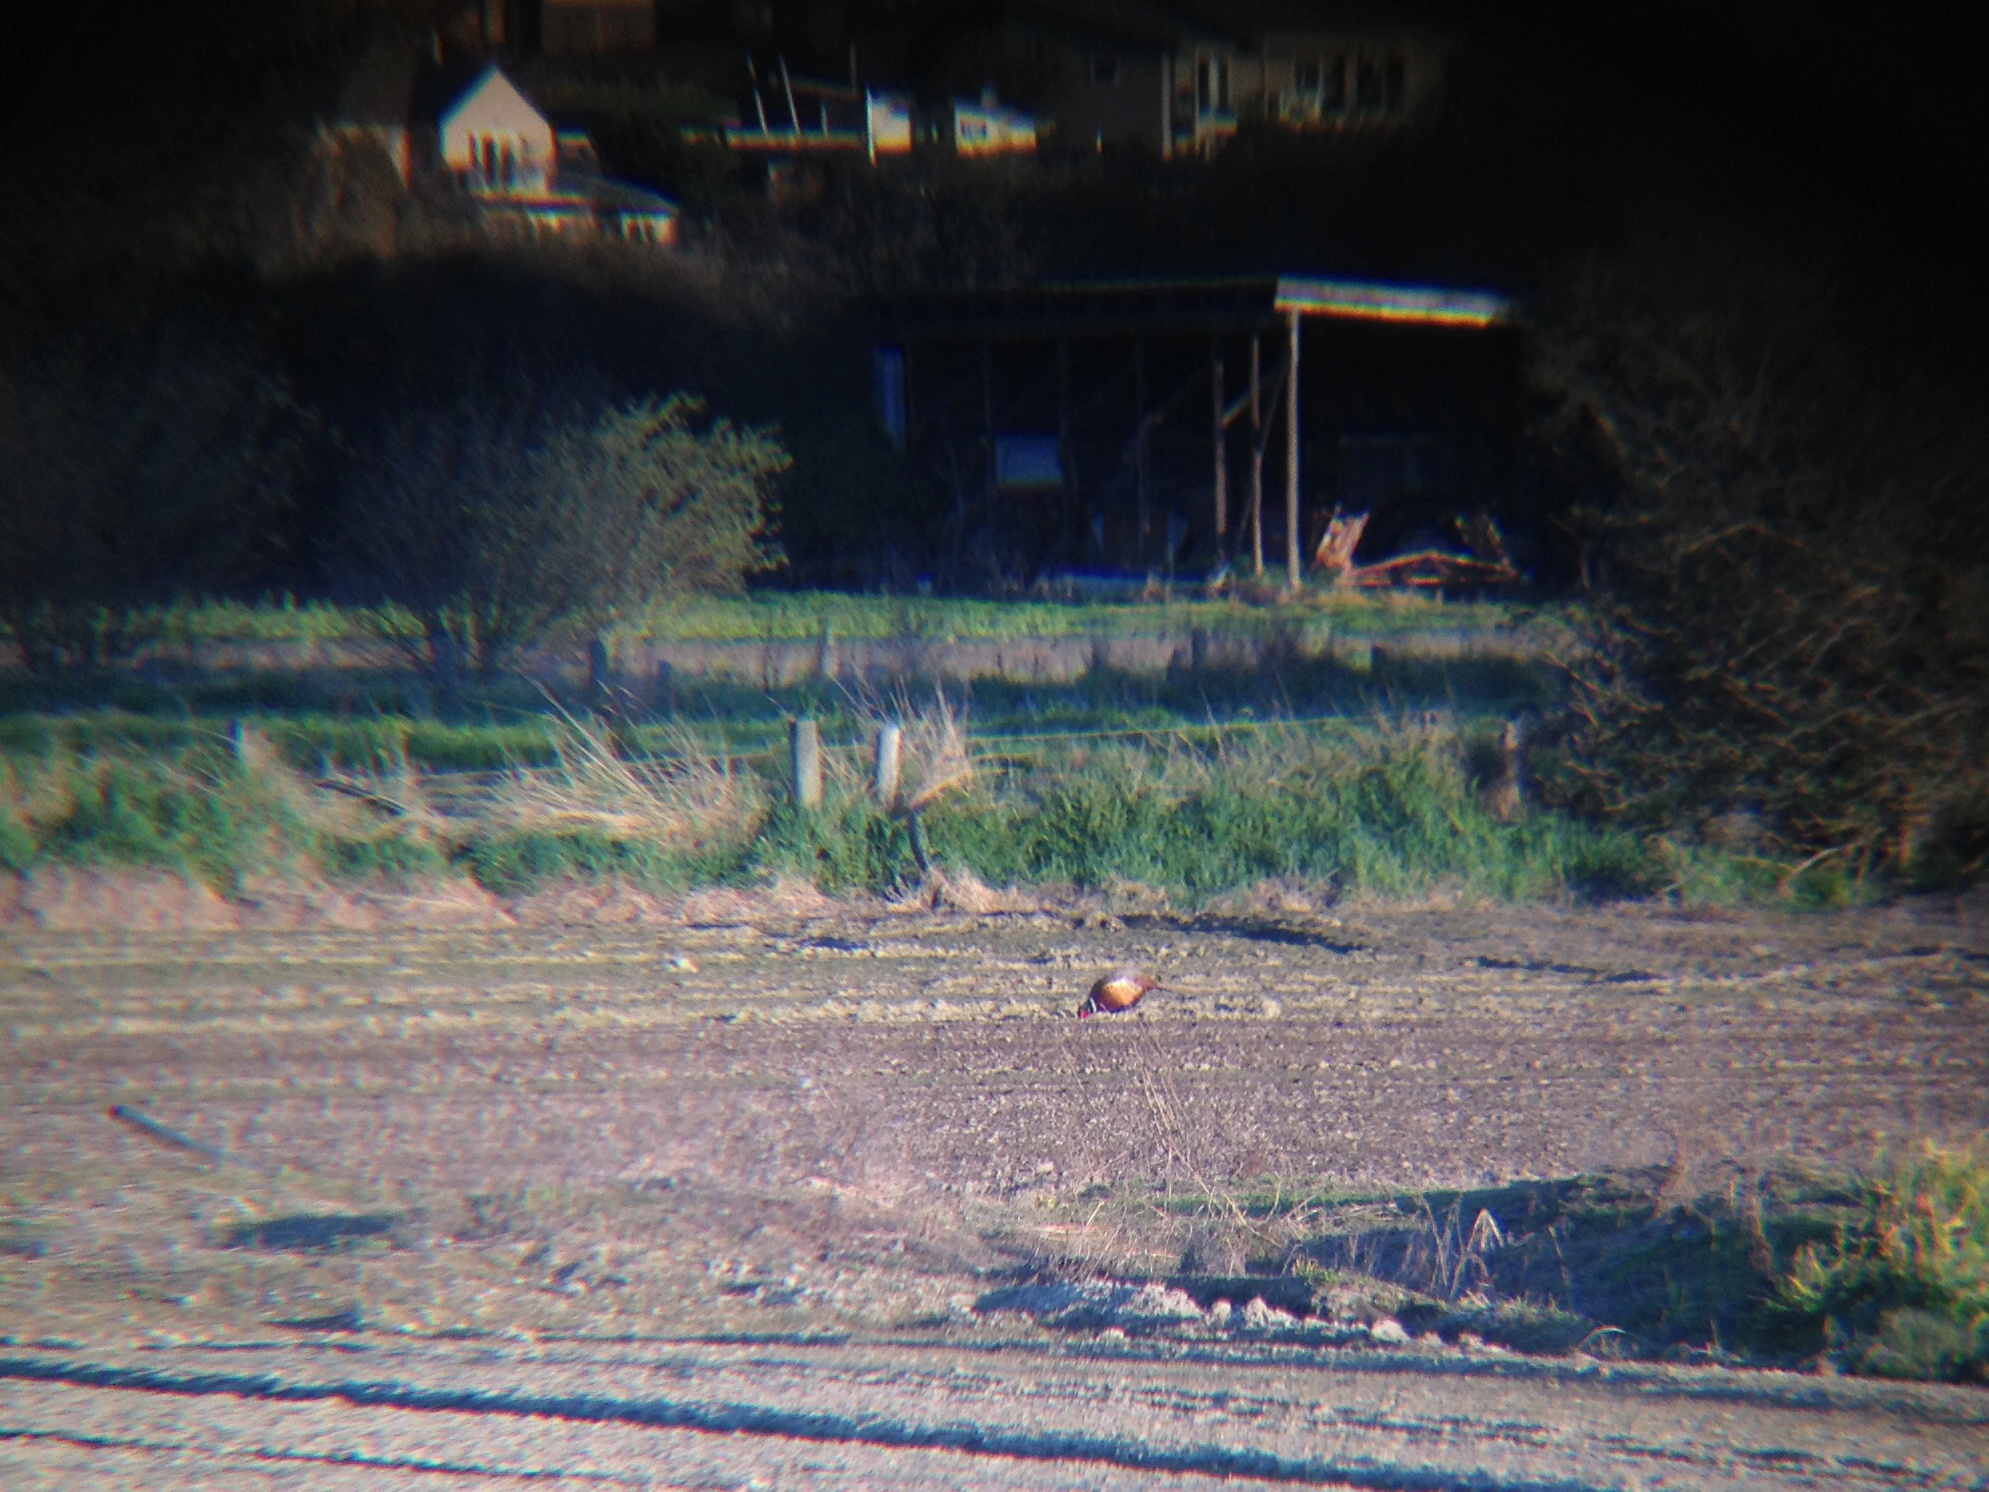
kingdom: Animalia
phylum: Chordata
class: Aves
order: Galliformes
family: Phasianidae
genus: Phasianus
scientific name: Phasianus colchicus
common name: Common pheasant
